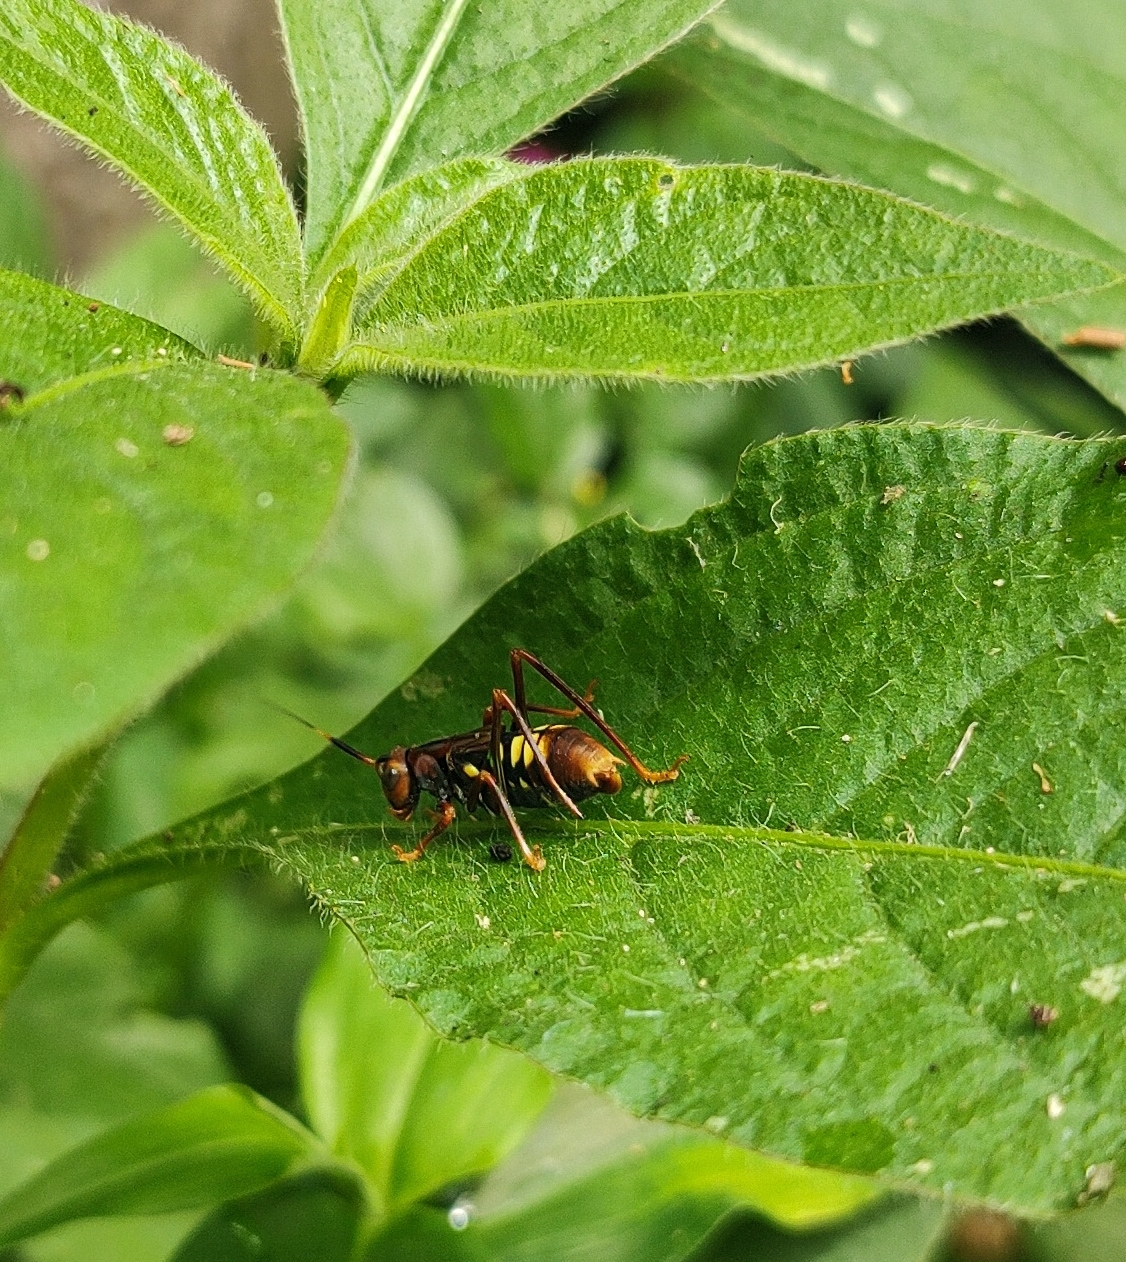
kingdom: Animalia
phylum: Arthropoda
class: Insecta
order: Orthoptera
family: Tettigoniidae
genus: Scaphura
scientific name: Scaphura nigra
